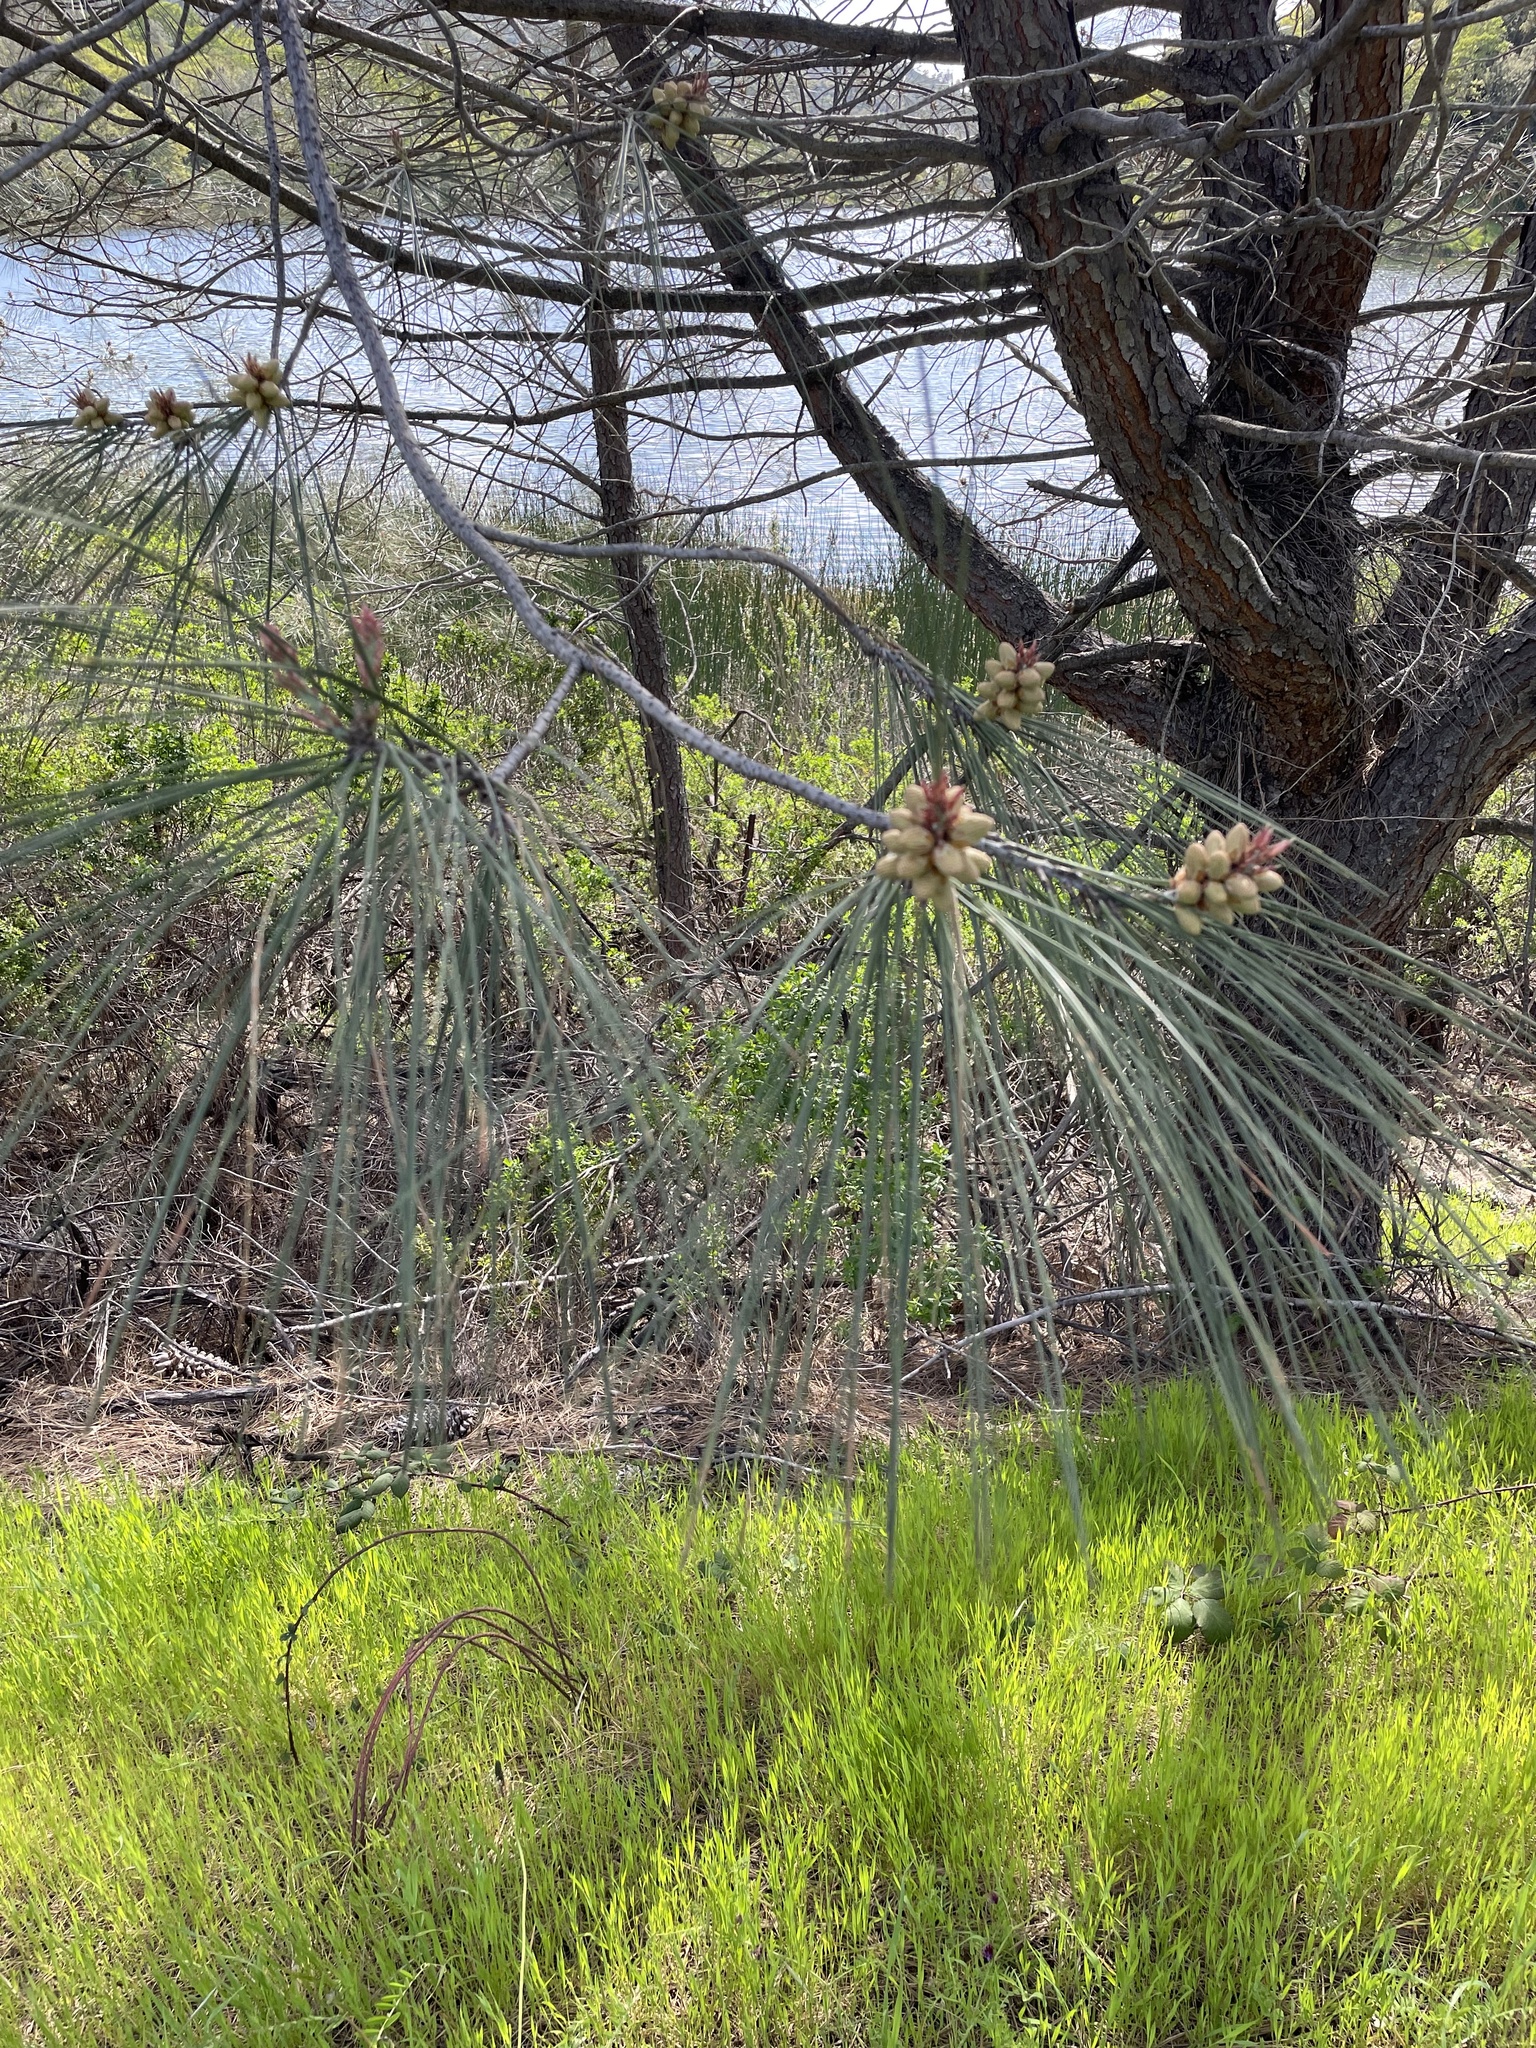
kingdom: Plantae
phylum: Tracheophyta
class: Pinopsida
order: Pinales
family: Pinaceae
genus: Pinus
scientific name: Pinus sabiniana
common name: Bull pine
